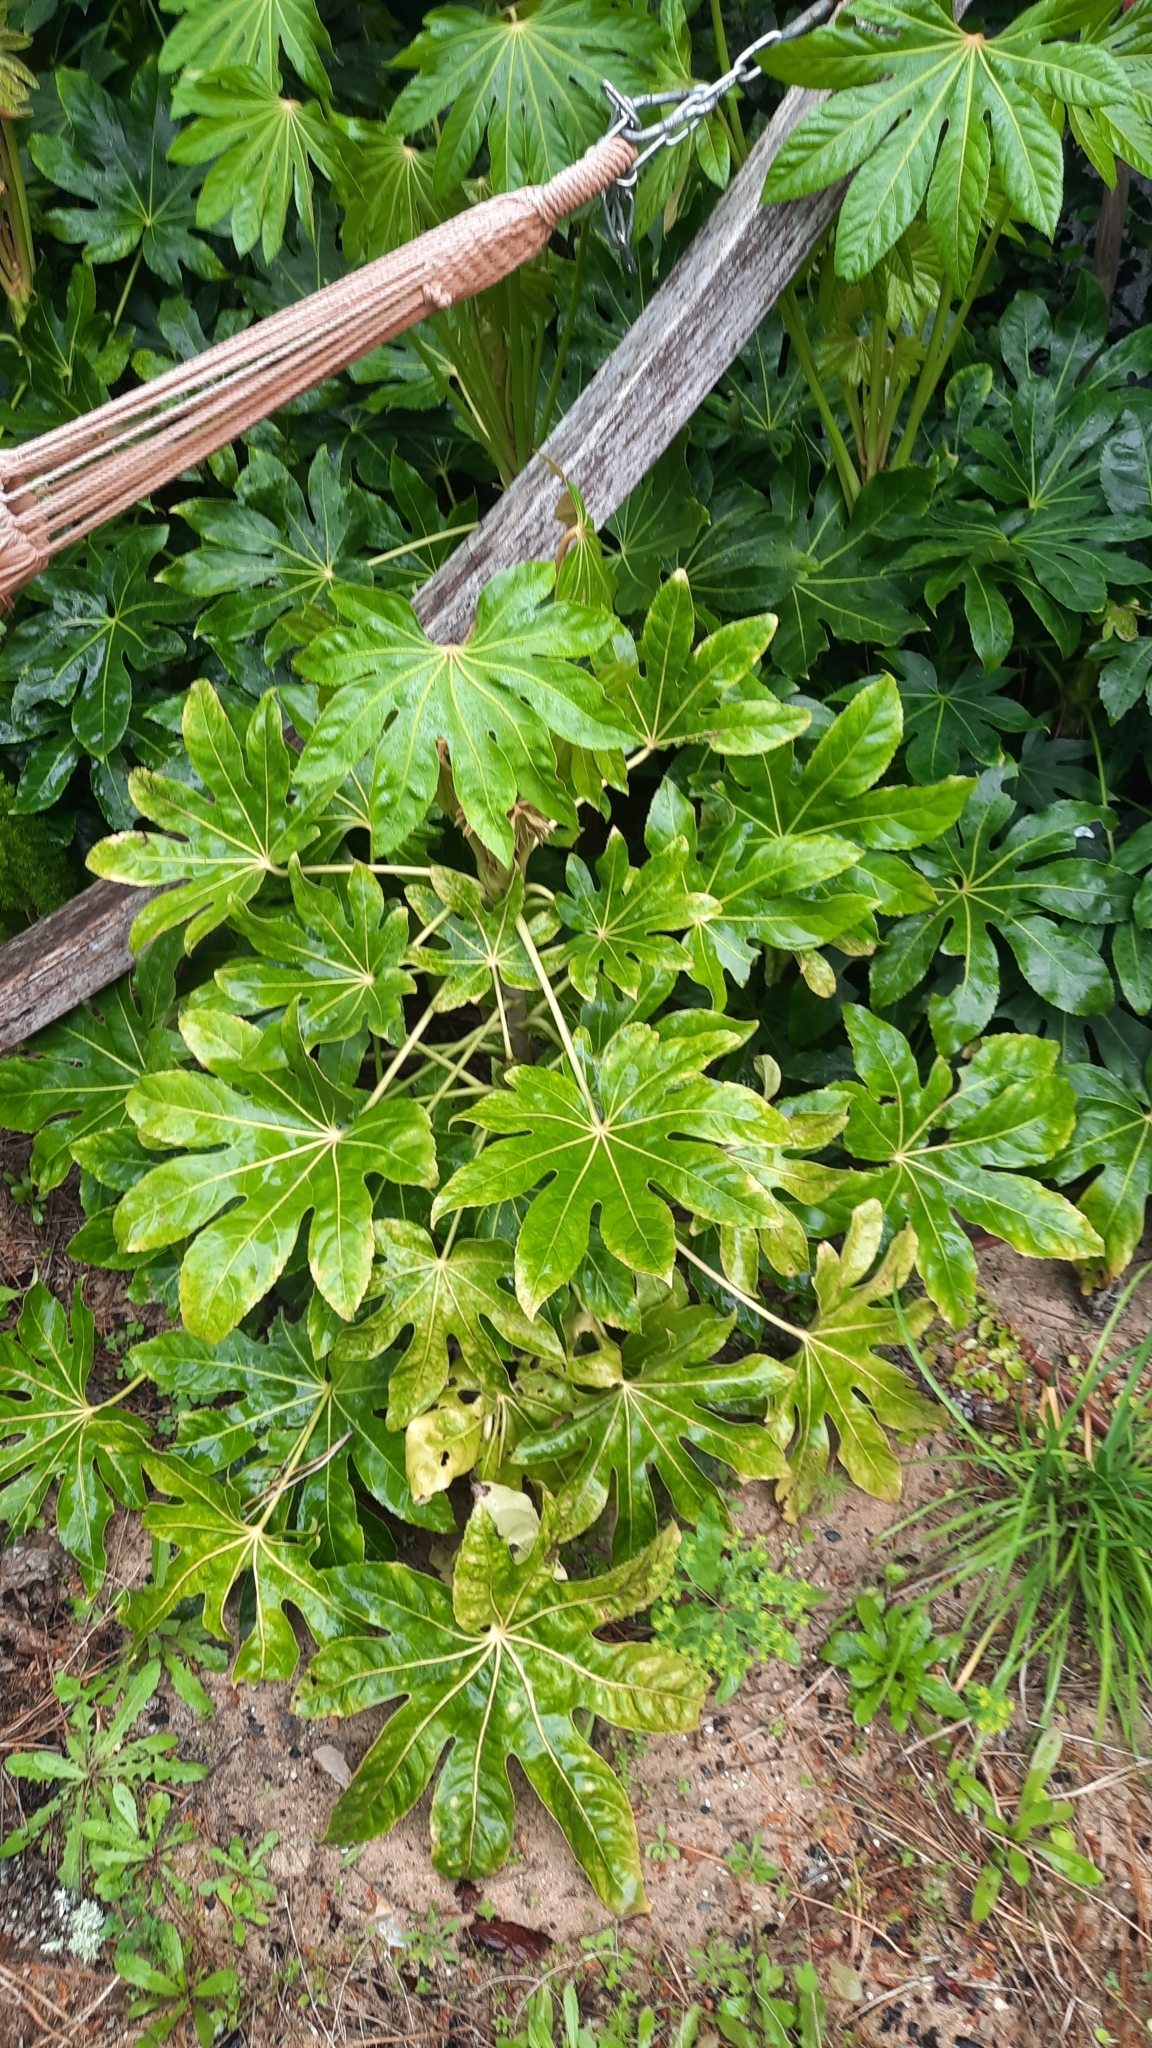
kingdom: Plantae
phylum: Tracheophyta
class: Magnoliopsida
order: Apiales
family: Araliaceae
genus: Fatsia
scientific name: Fatsia japonica
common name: Fatsia
